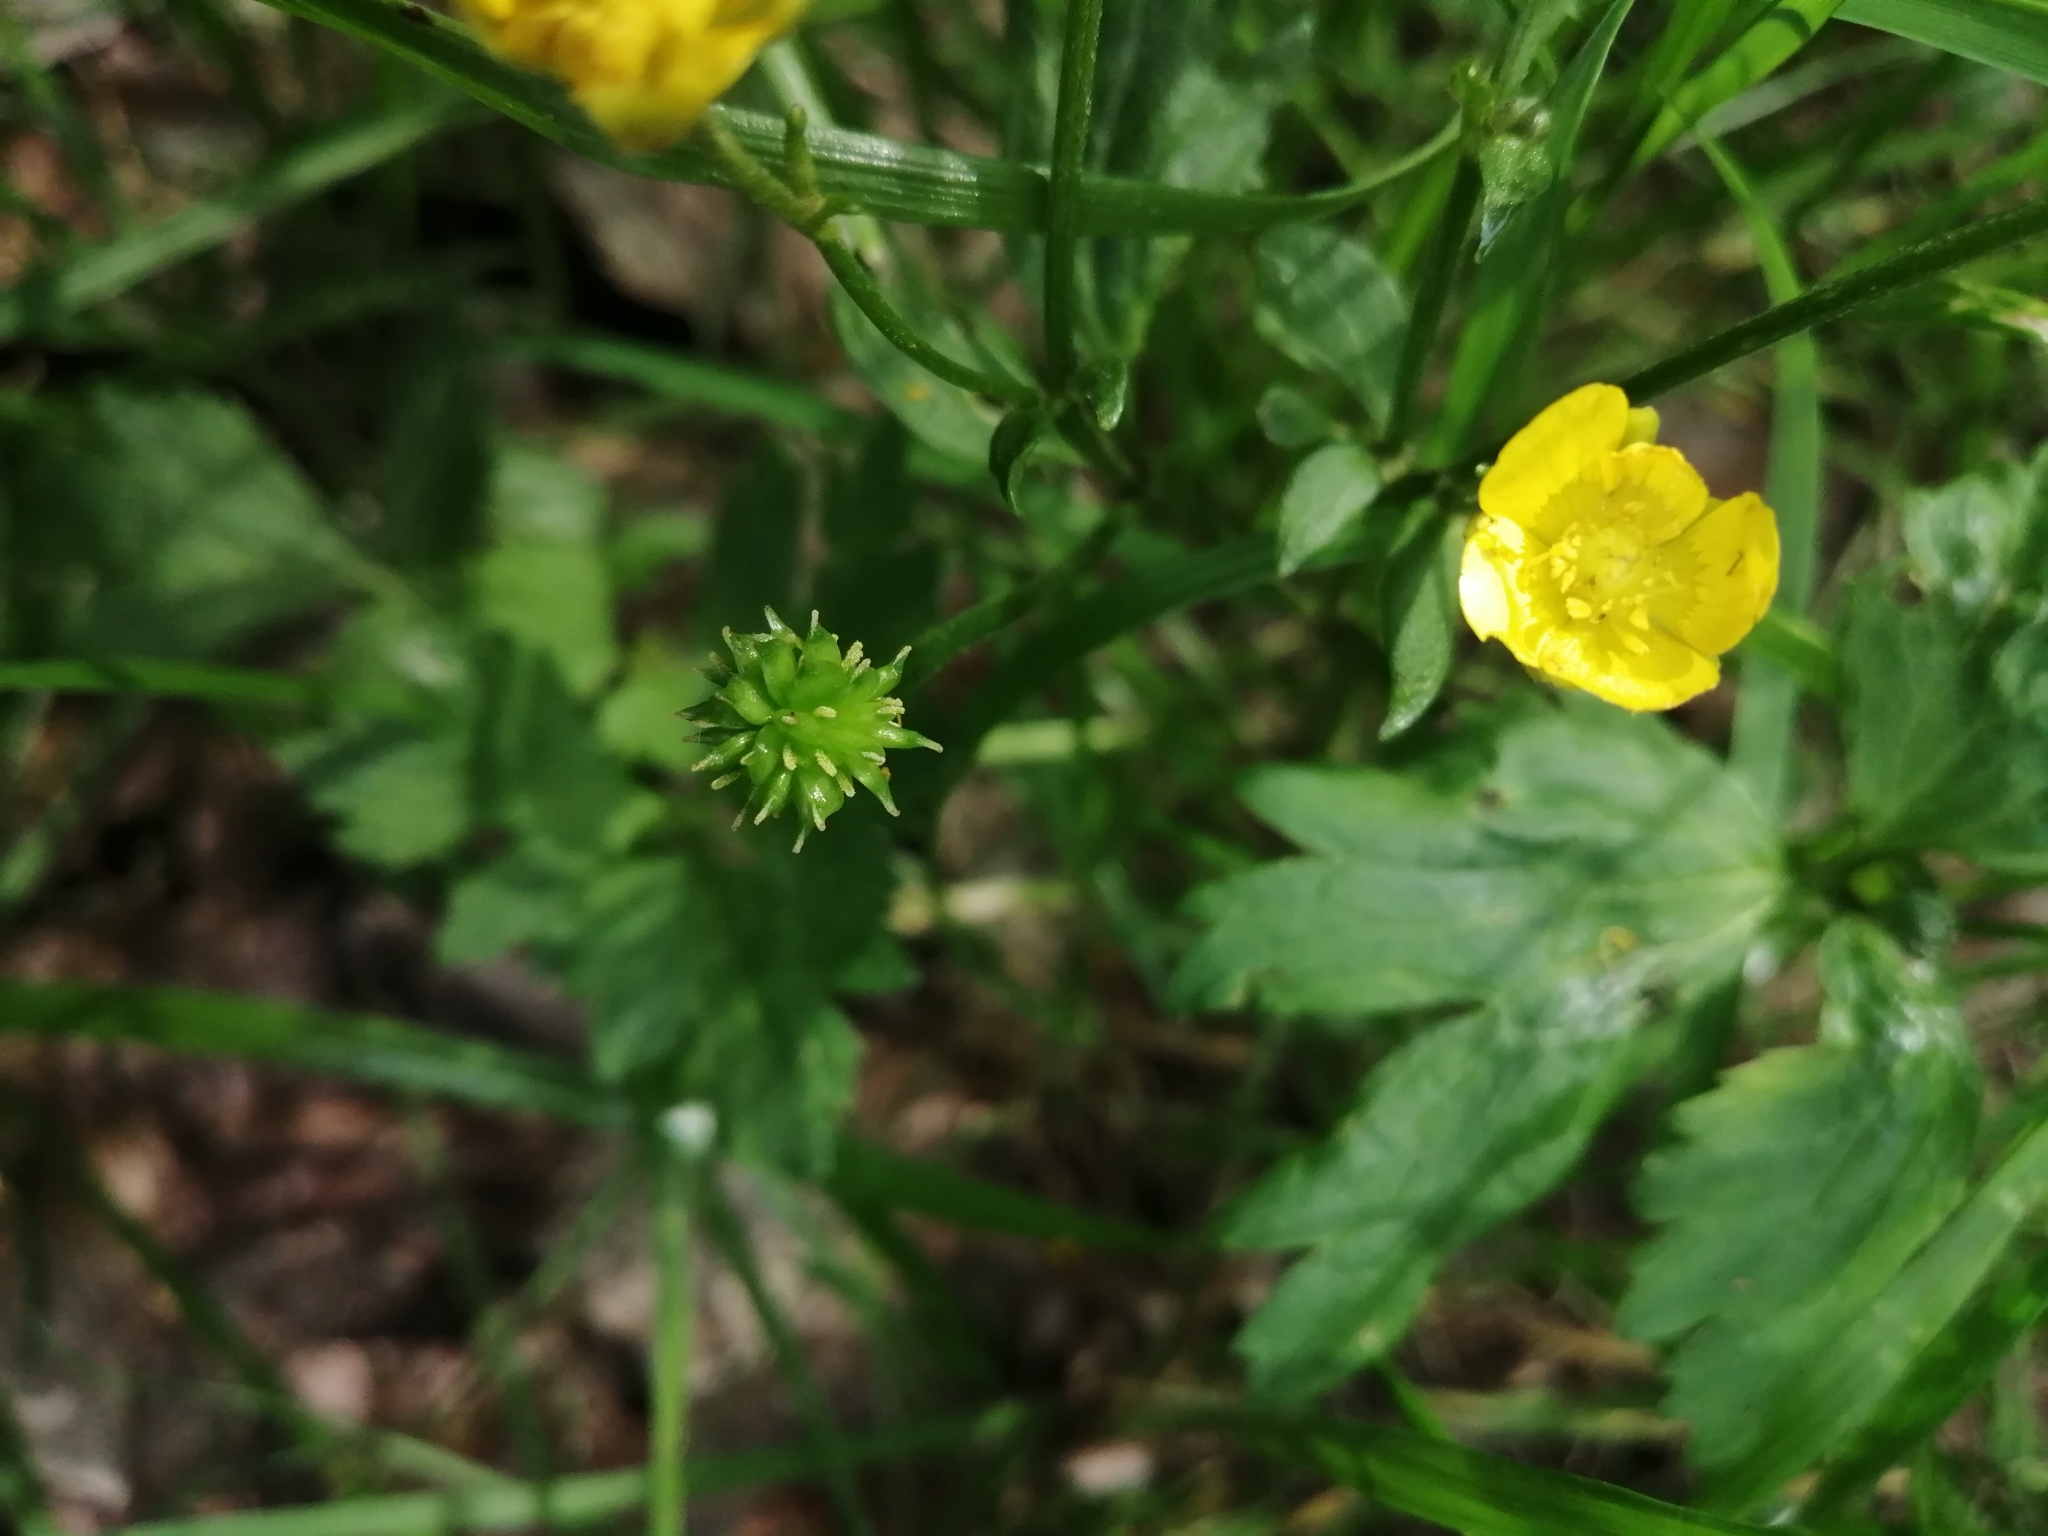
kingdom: Plantae
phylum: Tracheophyta
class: Magnoliopsida
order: Ranunculales
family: Ranunculaceae
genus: Ranunculus
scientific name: Ranunculus repens
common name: Creeping buttercup
